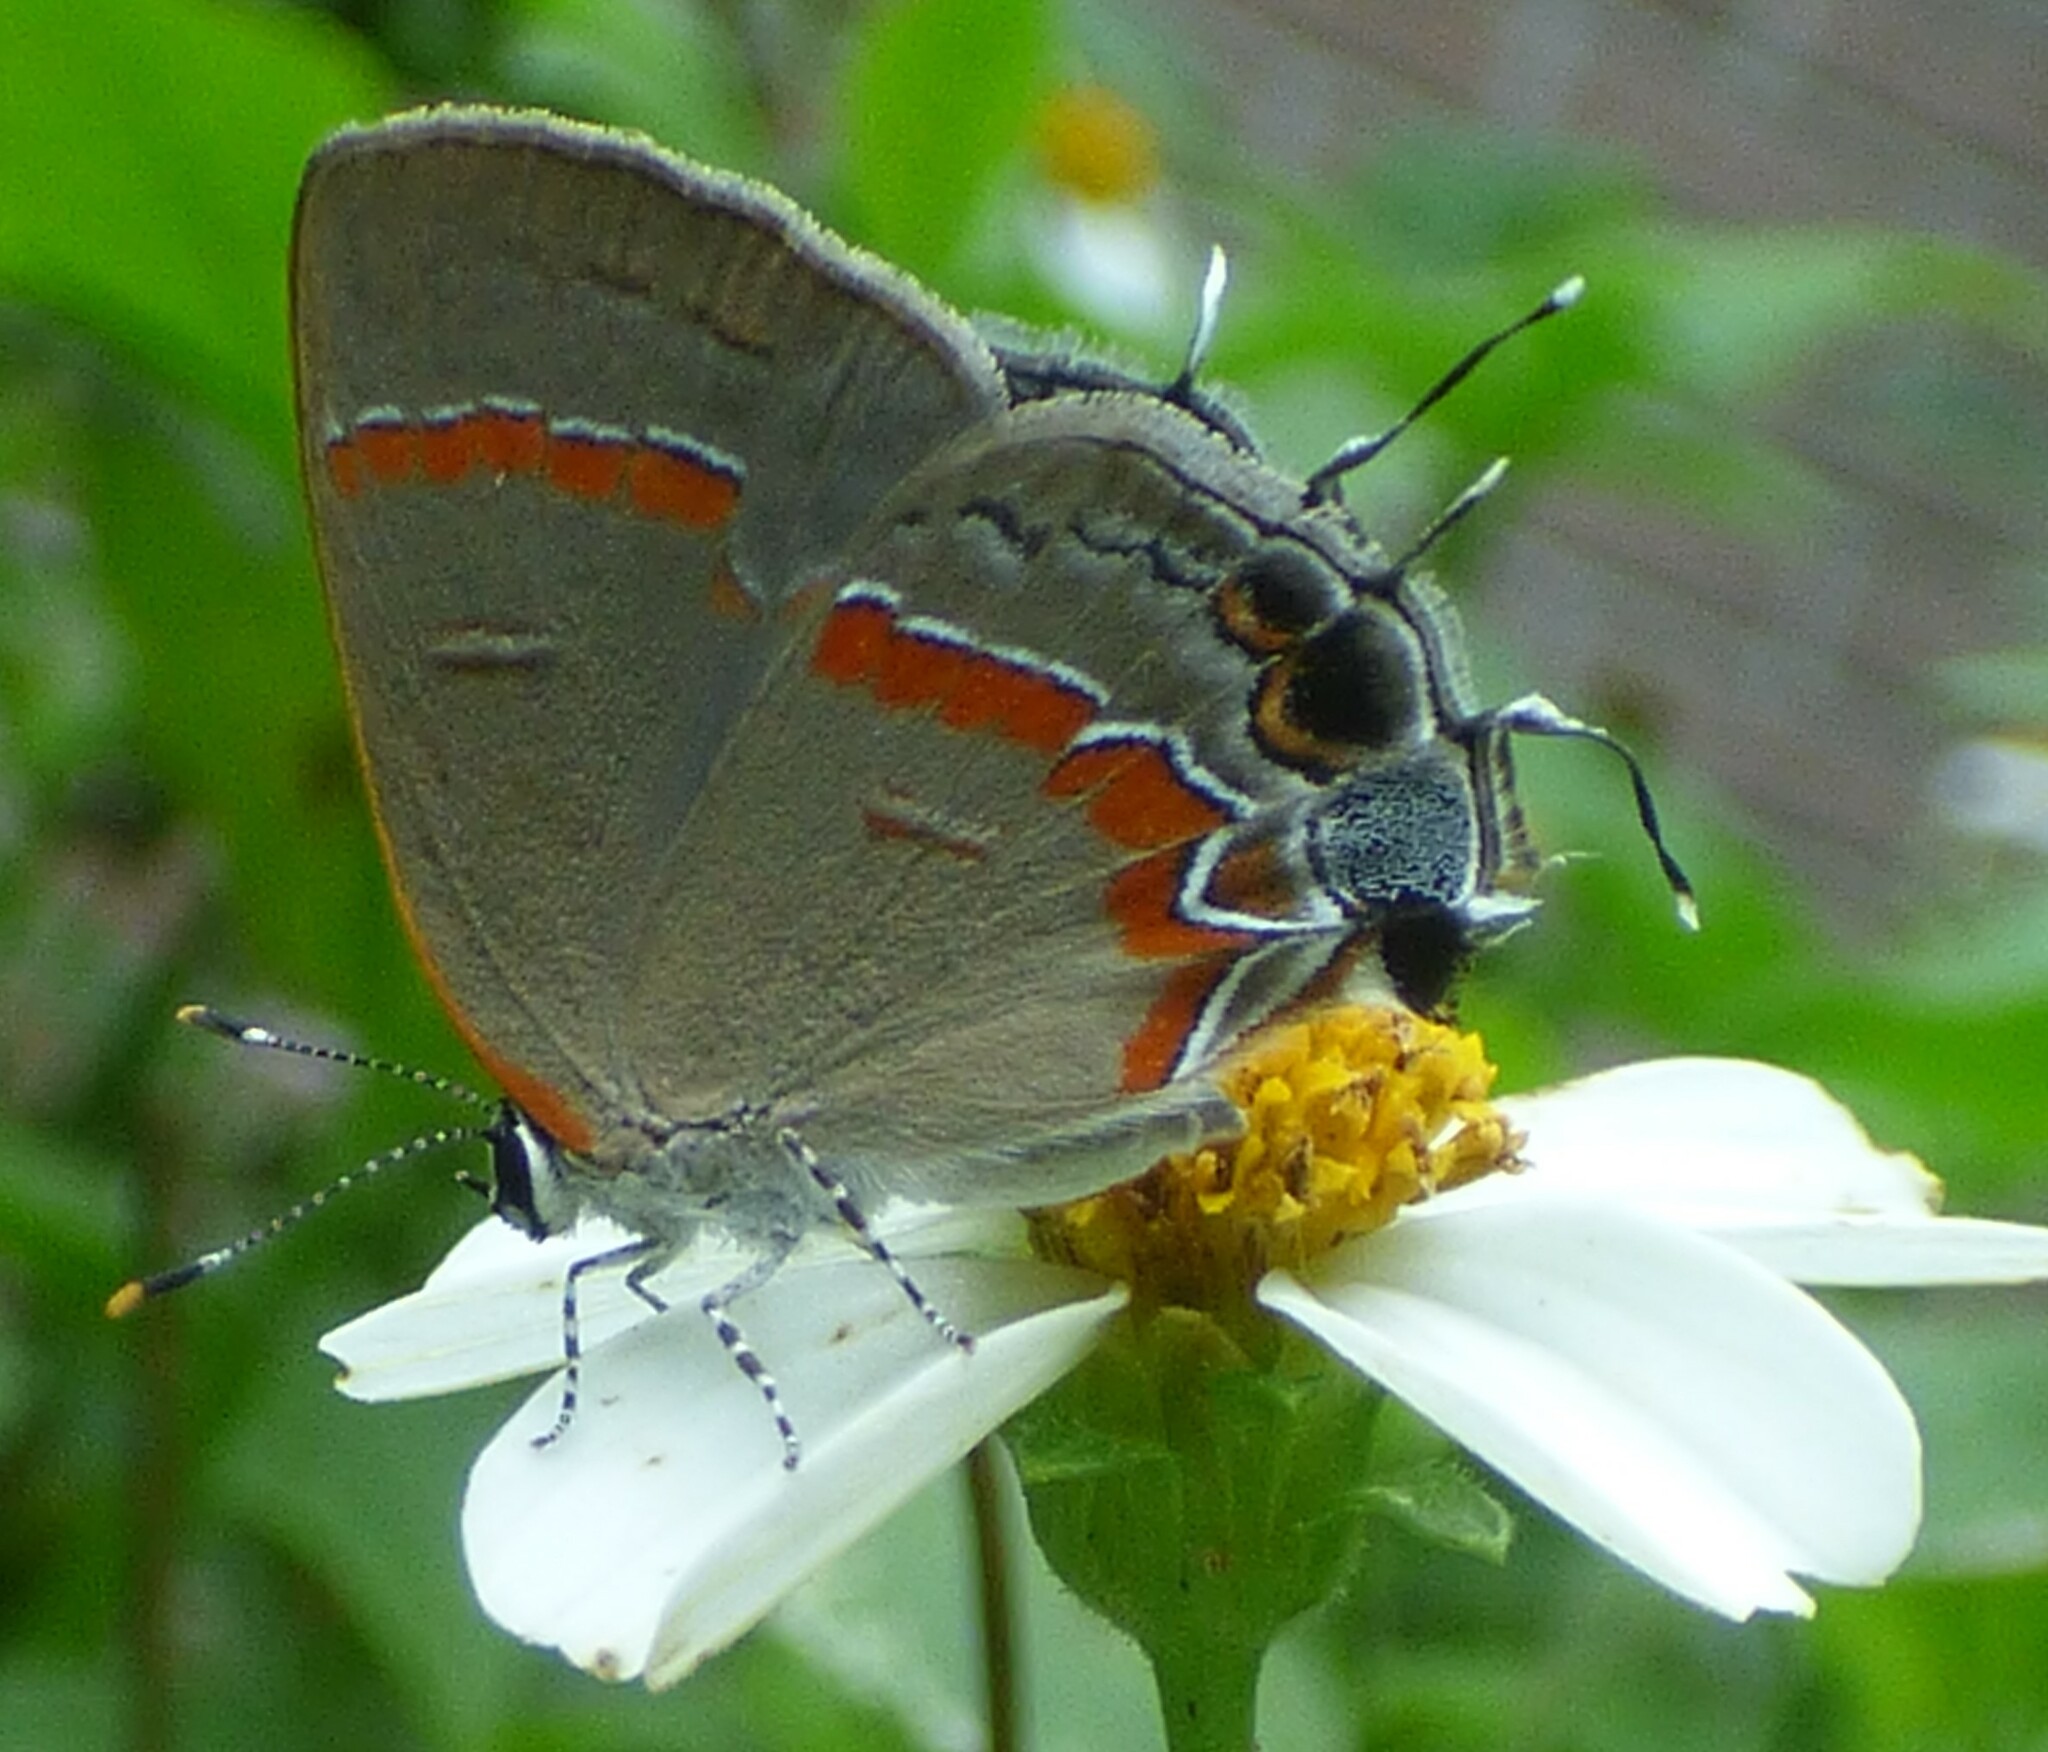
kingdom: Animalia
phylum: Arthropoda
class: Insecta
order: Lepidoptera
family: Lycaenidae
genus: Calycopis
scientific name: Calycopis cecrops
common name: Red-banded hairstreak
